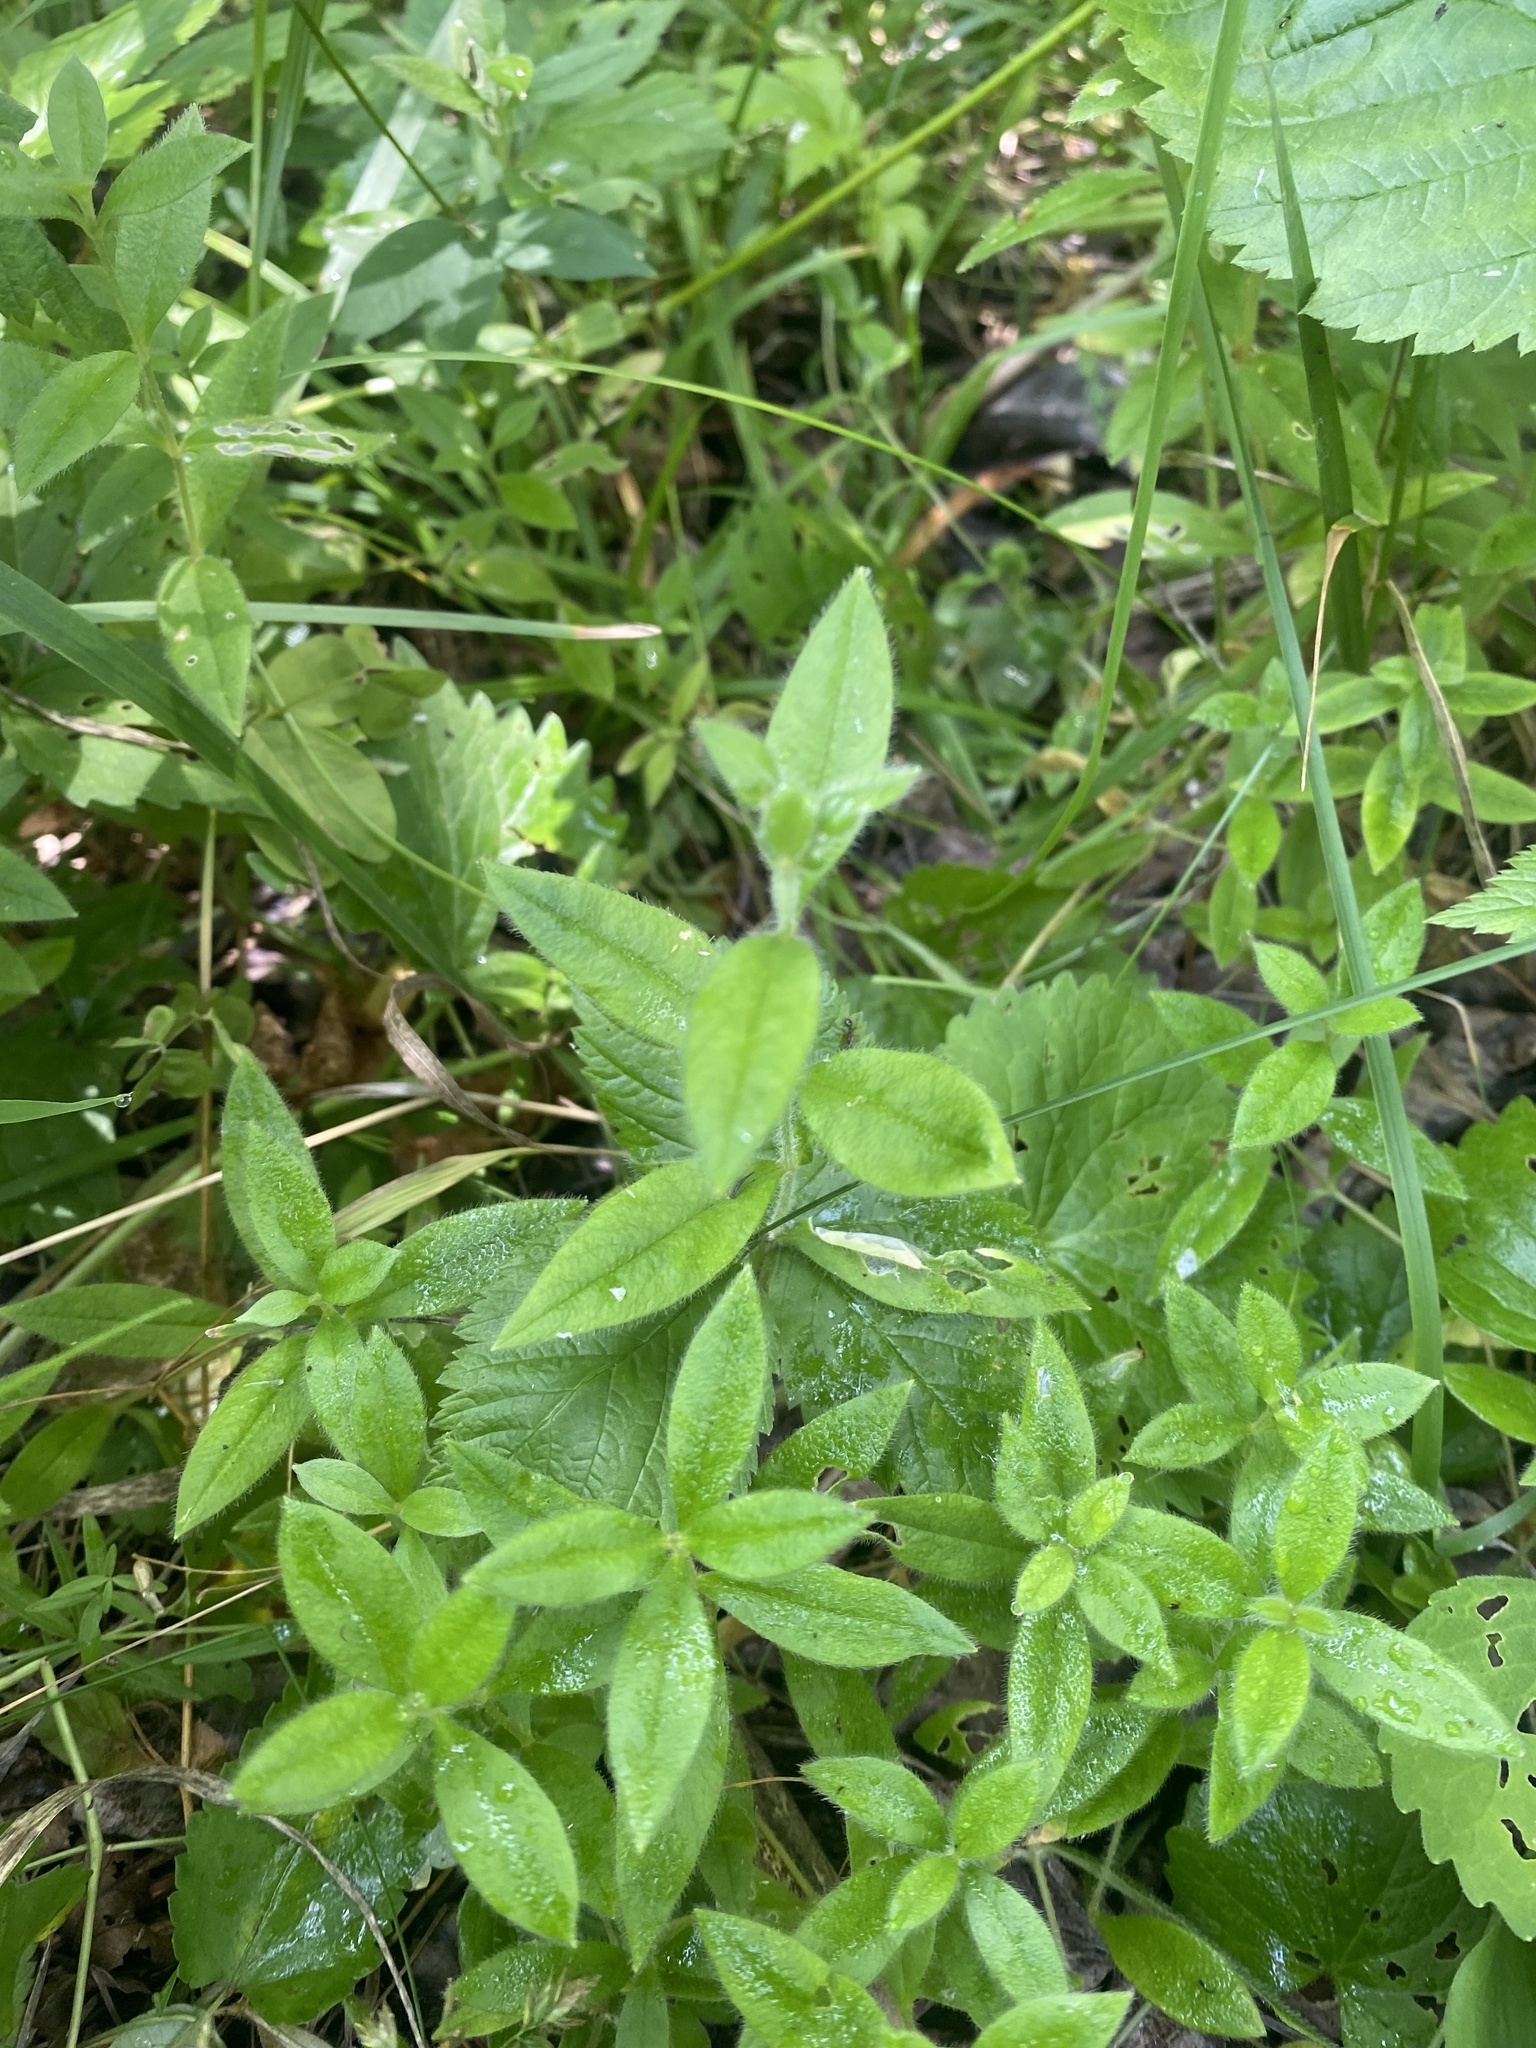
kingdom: Plantae
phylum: Tracheophyta
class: Magnoliopsida
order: Caryophyllales
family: Caryophyllaceae
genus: Cerastium
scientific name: Cerastium pauciflorum
